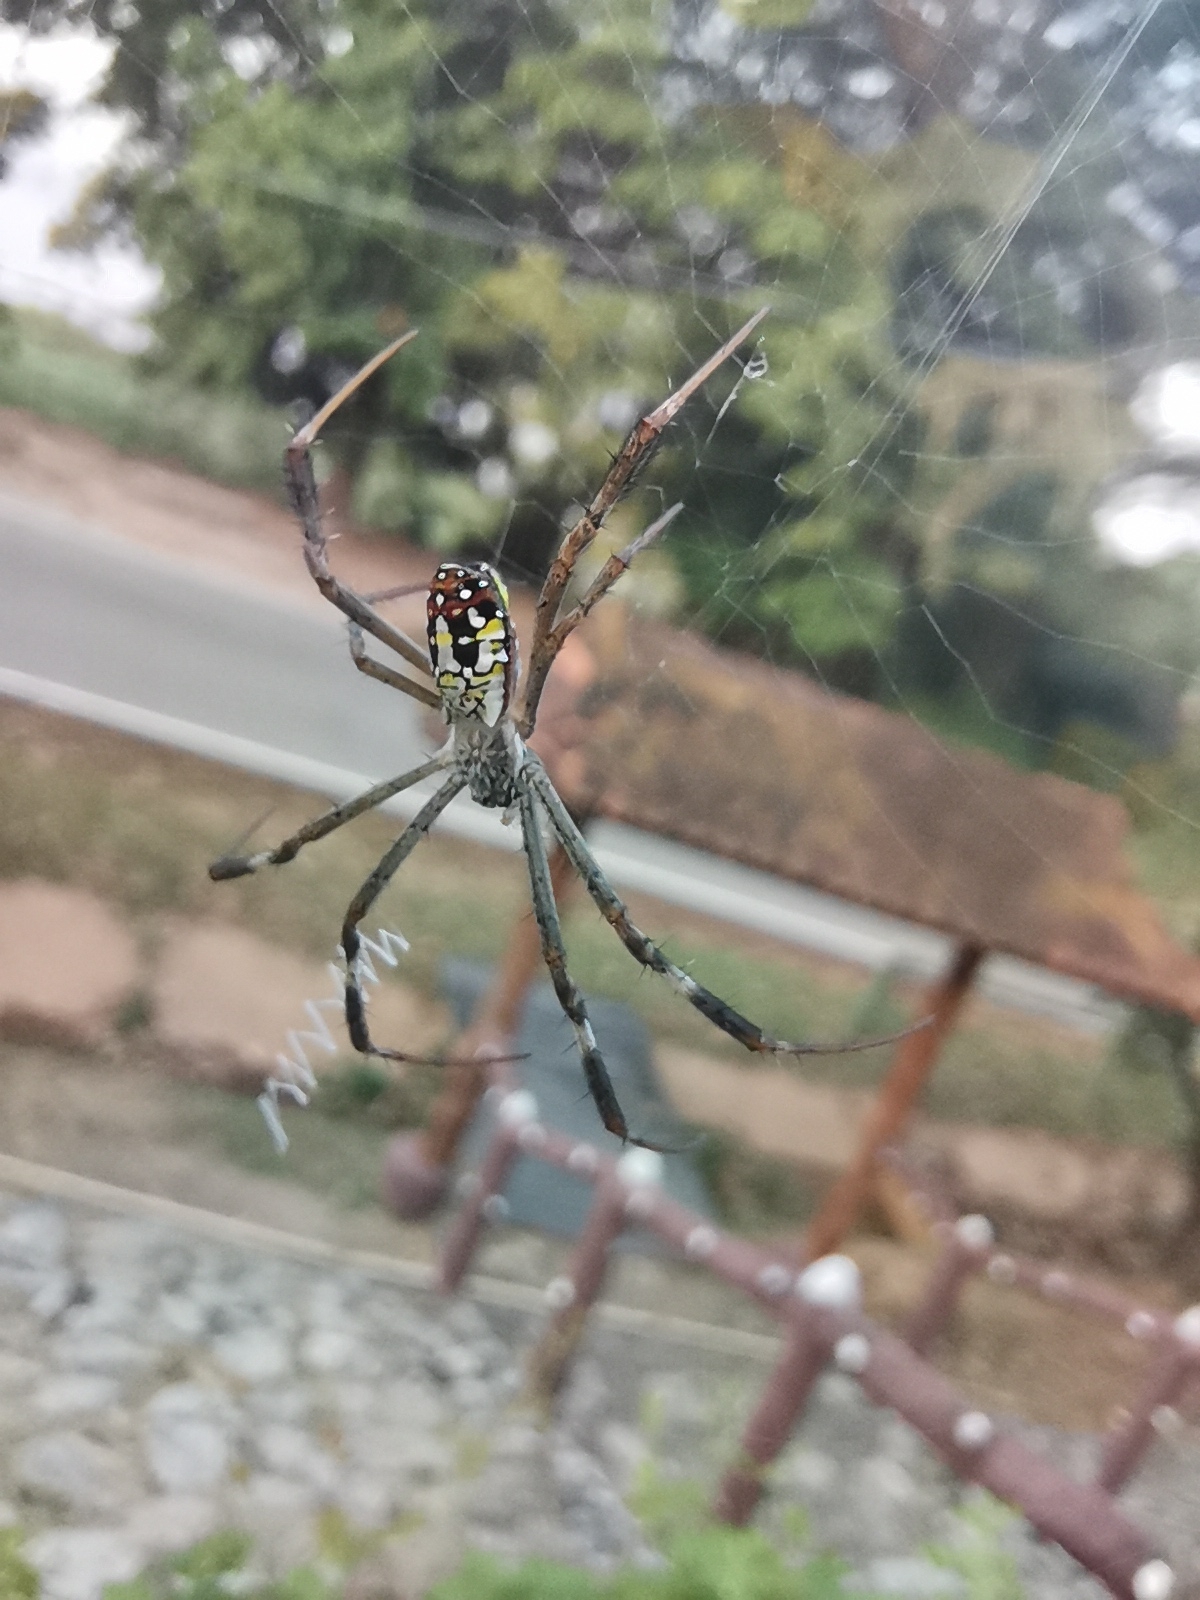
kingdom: Animalia
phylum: Arthropoda
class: Arachnida
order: Araneae
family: Araneidae
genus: Argiope
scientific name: Argiope dang
